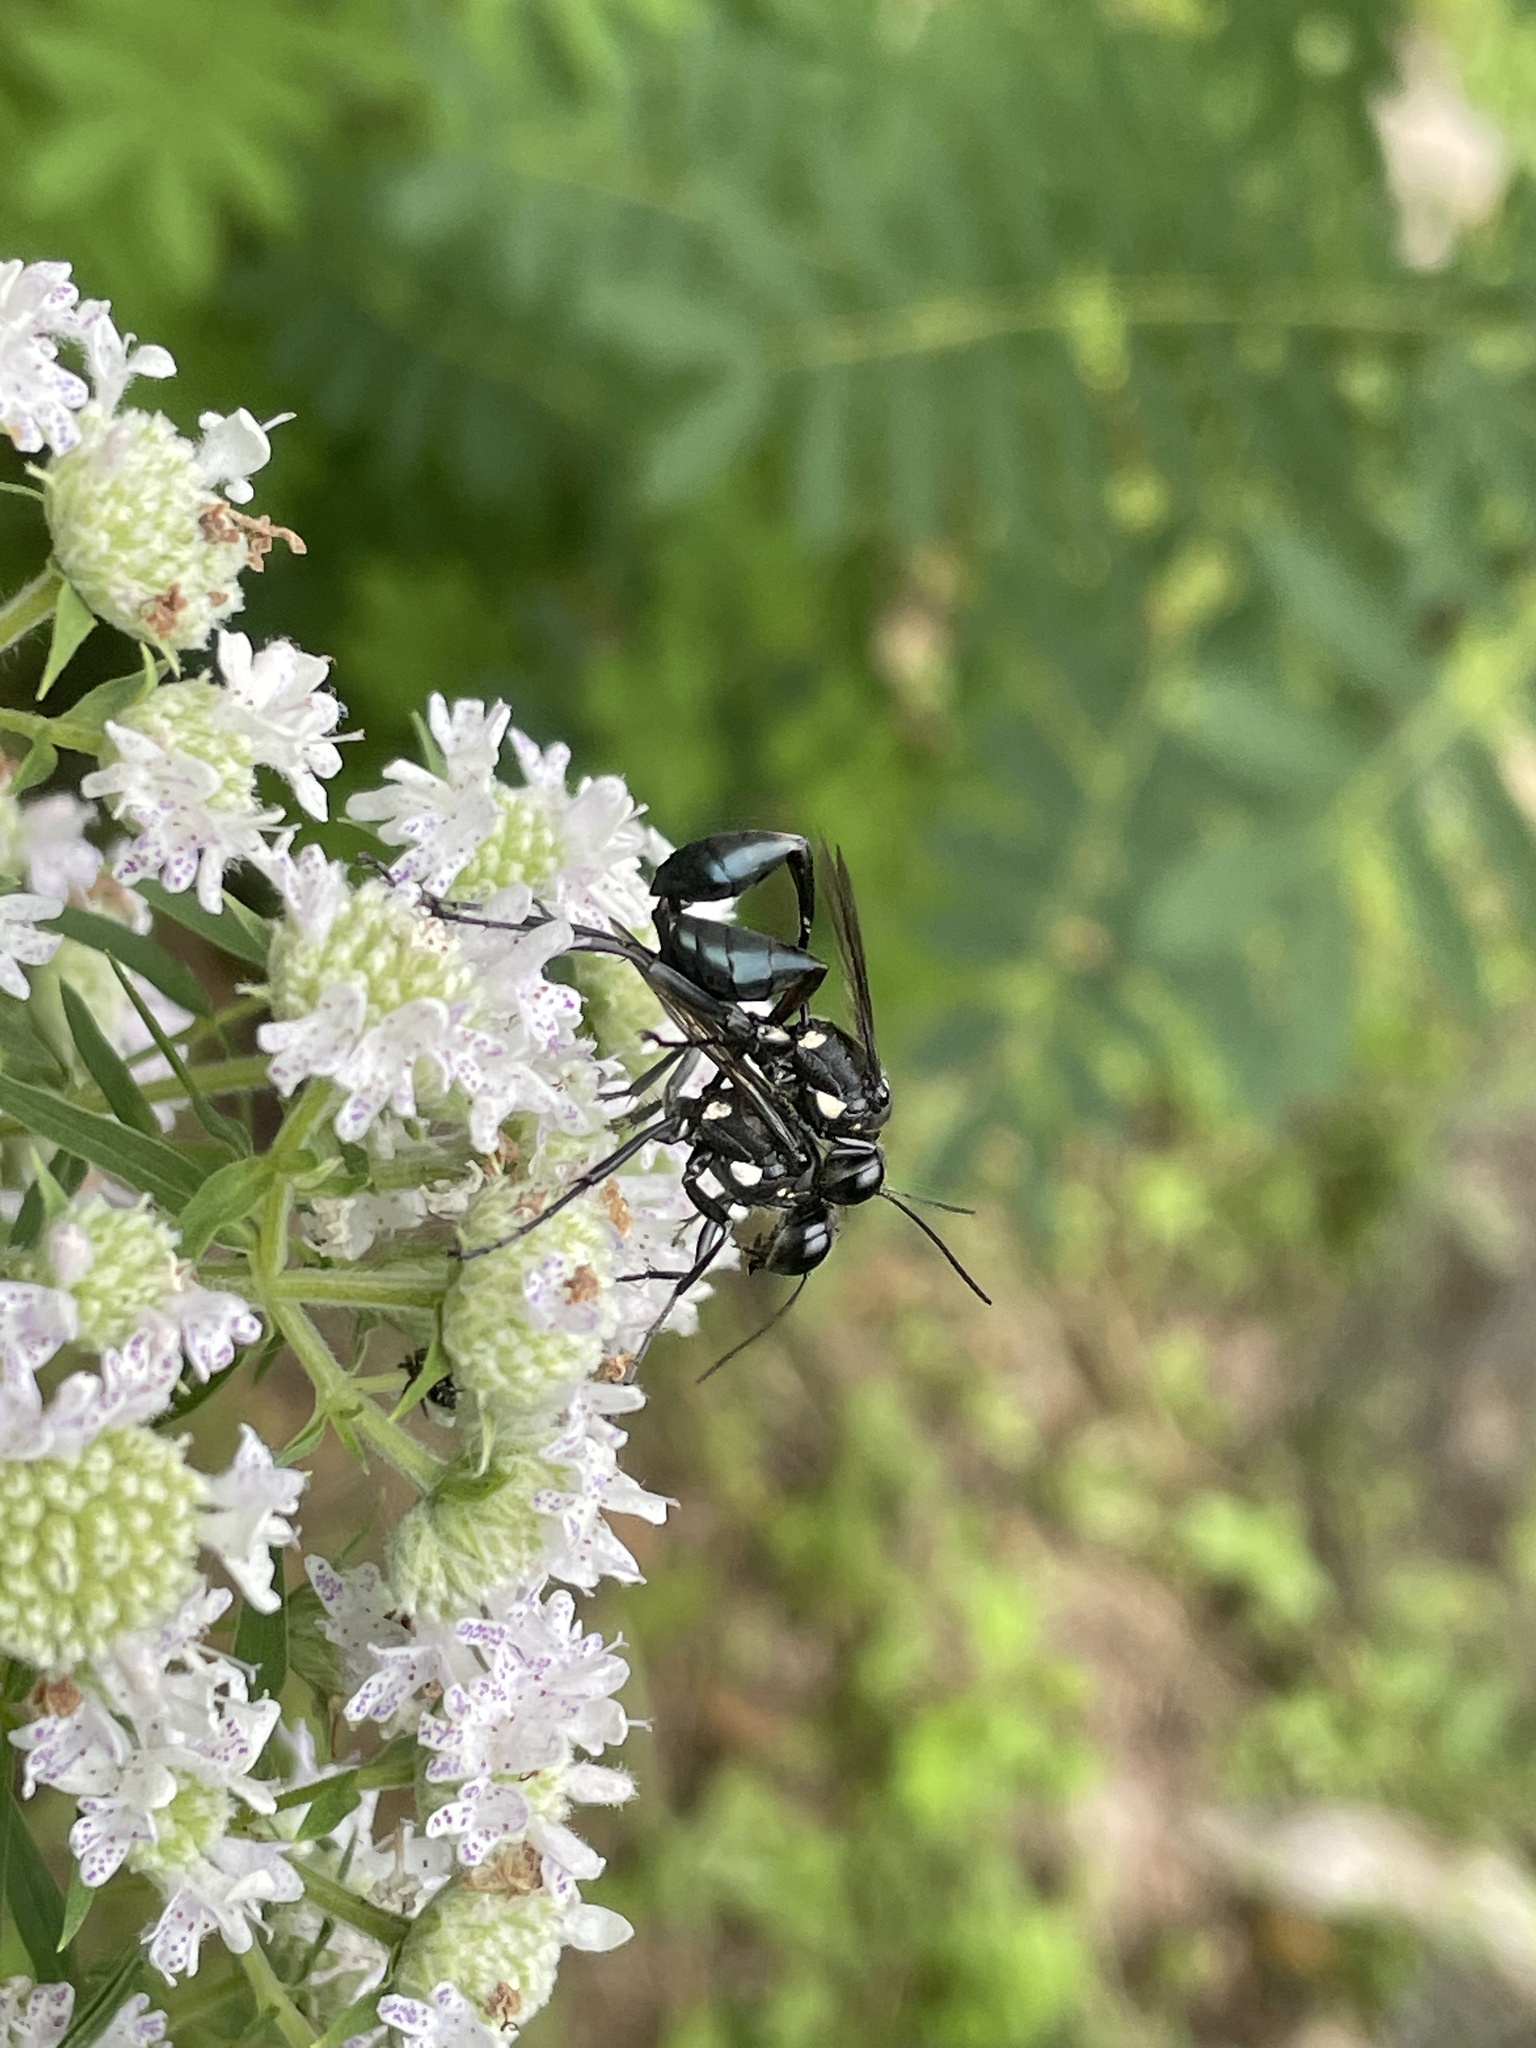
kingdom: Animalia
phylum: Arthropoda
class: Insecta
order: Hymenoptera
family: Sphecidae
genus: Eremnophila
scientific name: Eremnophila aureonotata
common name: Gold-marked thread-waisted wasp
